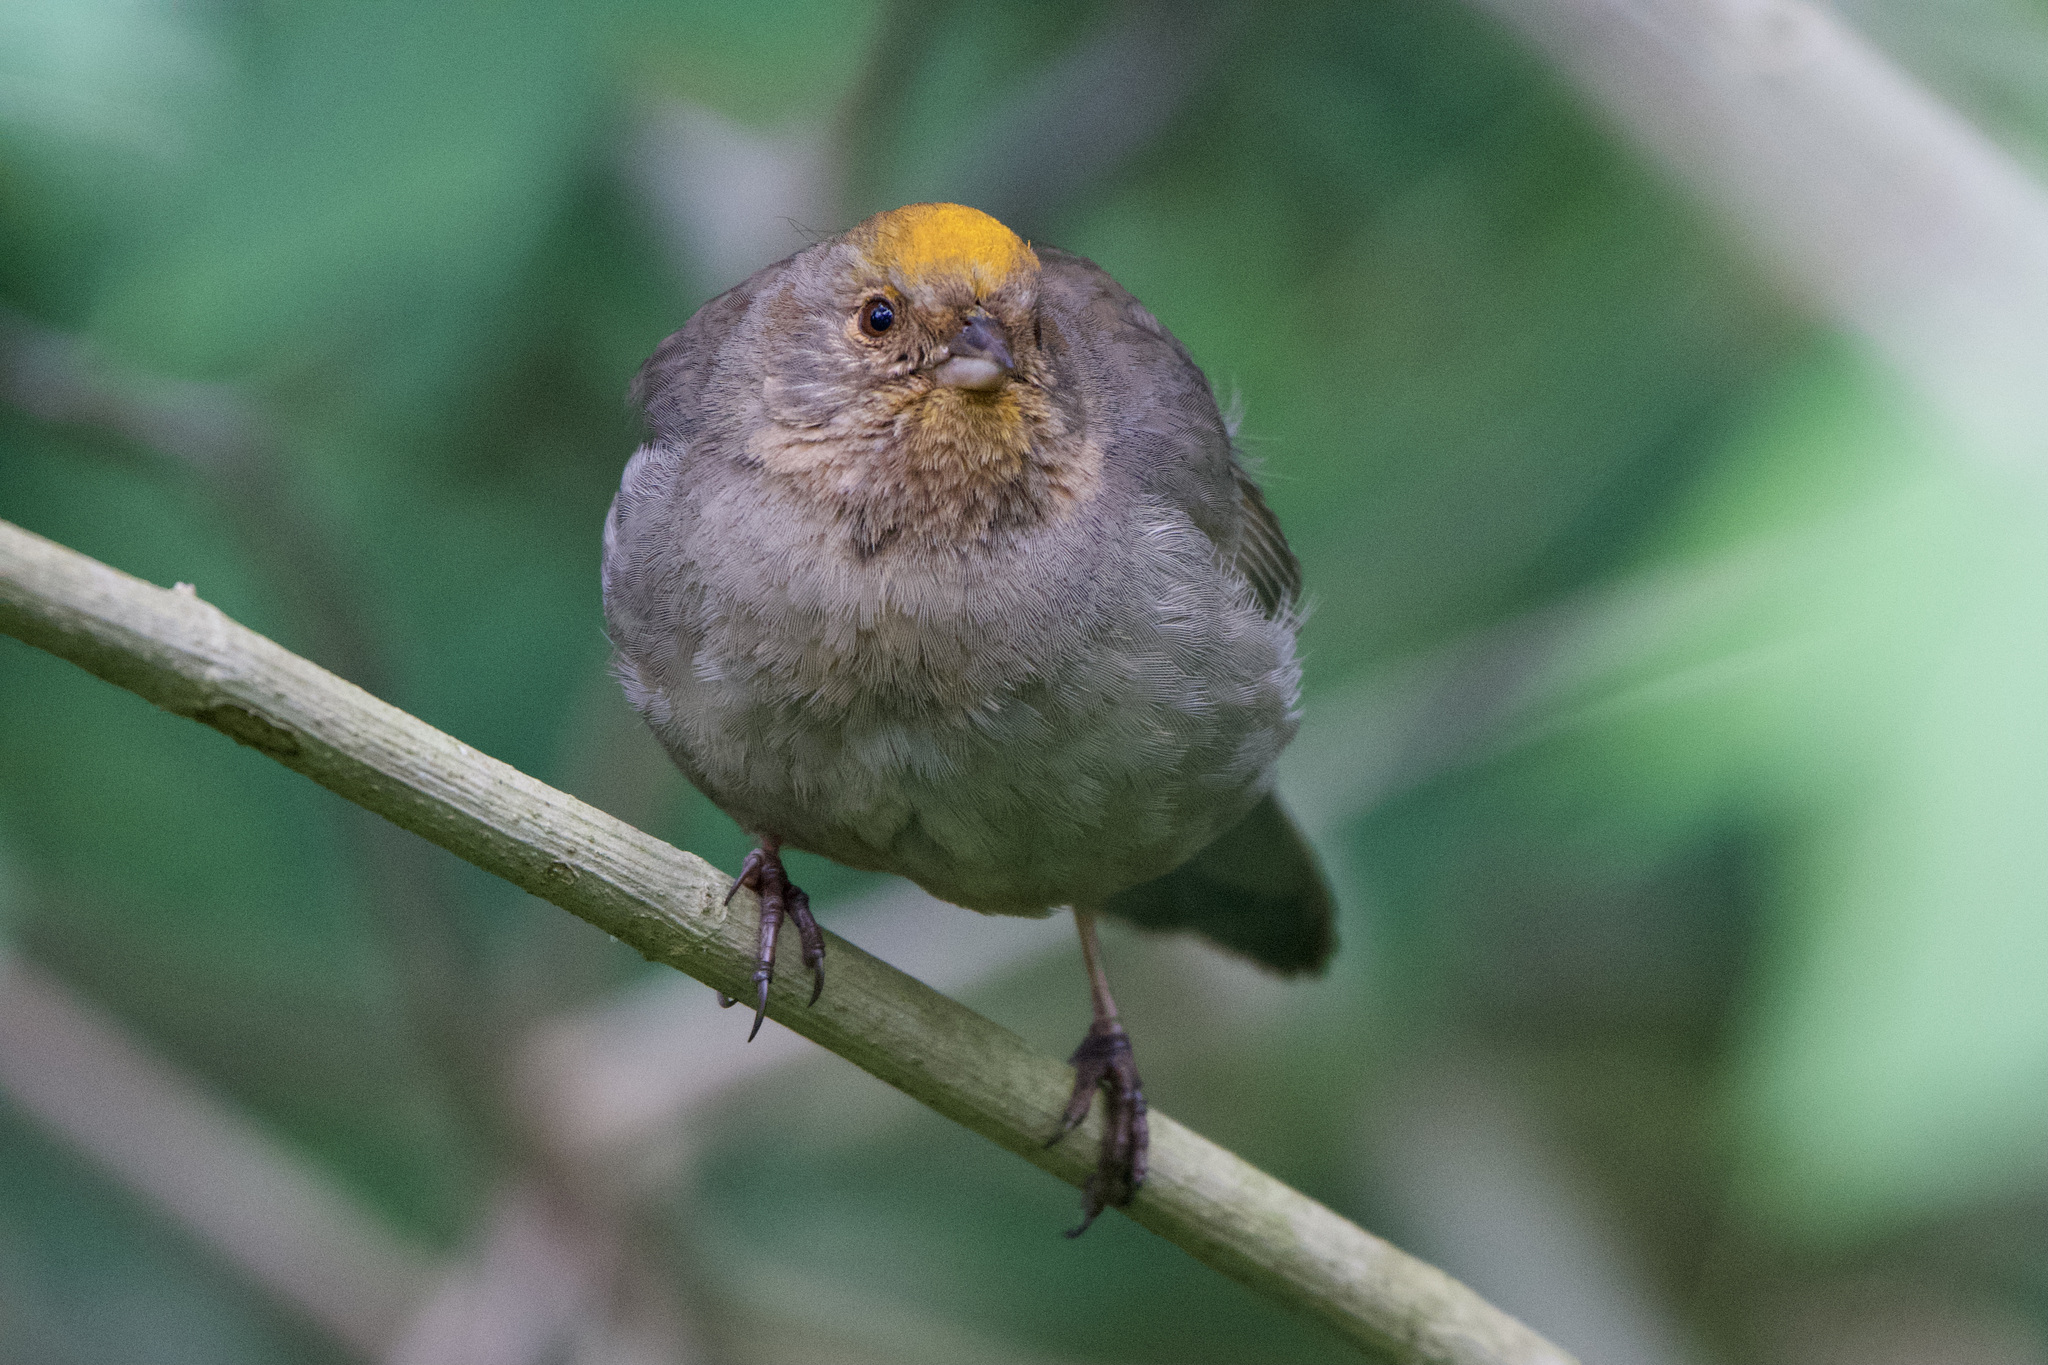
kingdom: Animalia
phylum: Chordata
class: Aves
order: Passeriformes
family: Passerellidae
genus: Melozone
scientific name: Melozone crissalis
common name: California towhee
